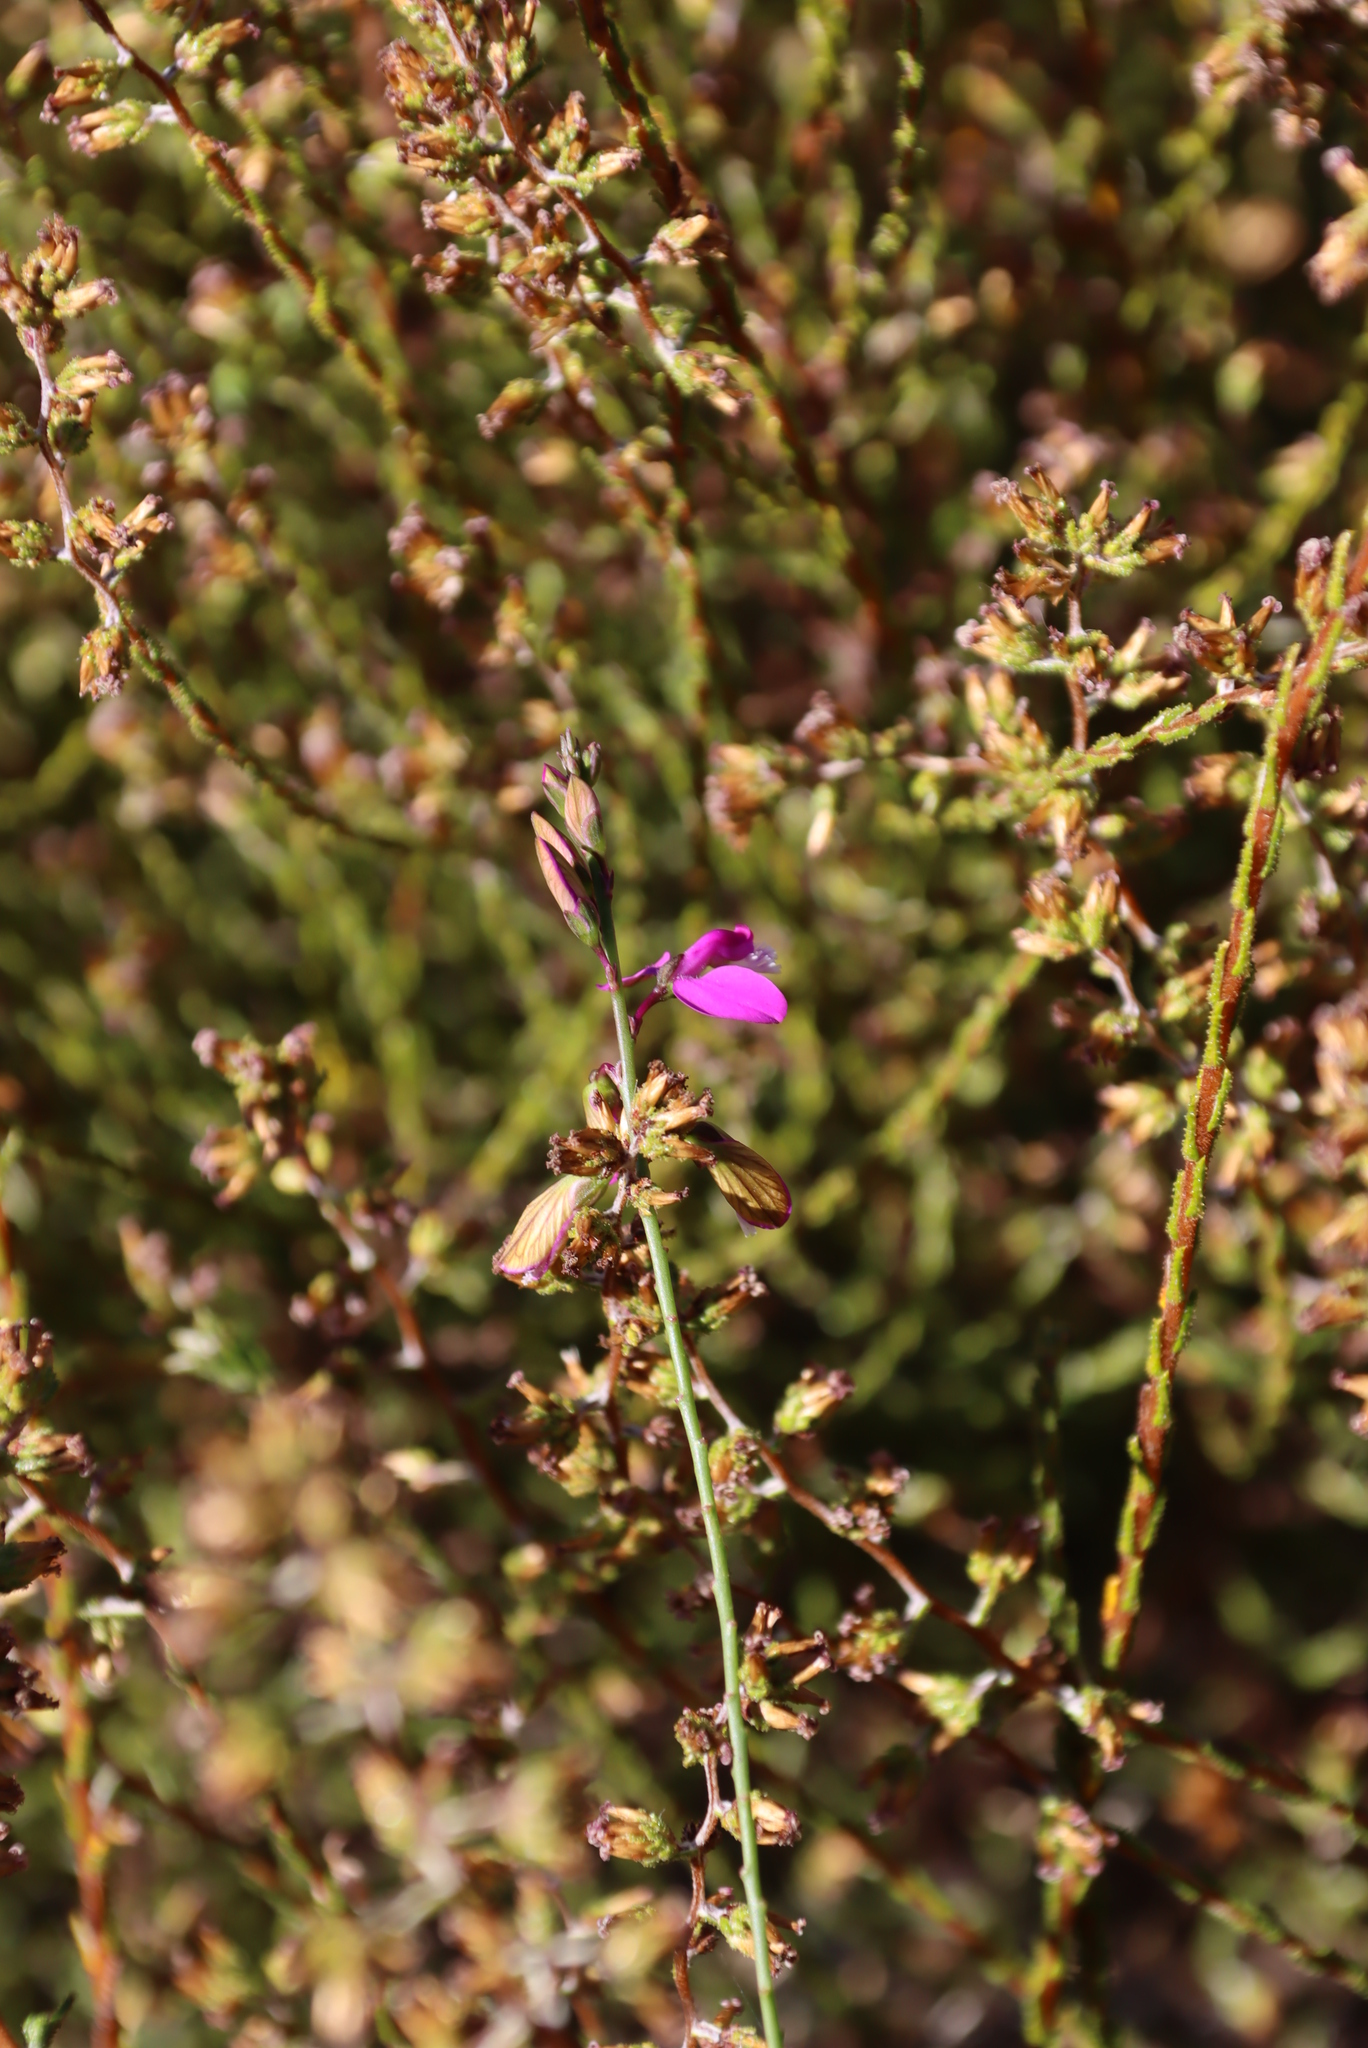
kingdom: Plantae
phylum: Tracheophyta
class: Magnoliopsida
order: Fabales
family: Polygalaceae
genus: Polygala
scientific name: Polygala garcini
